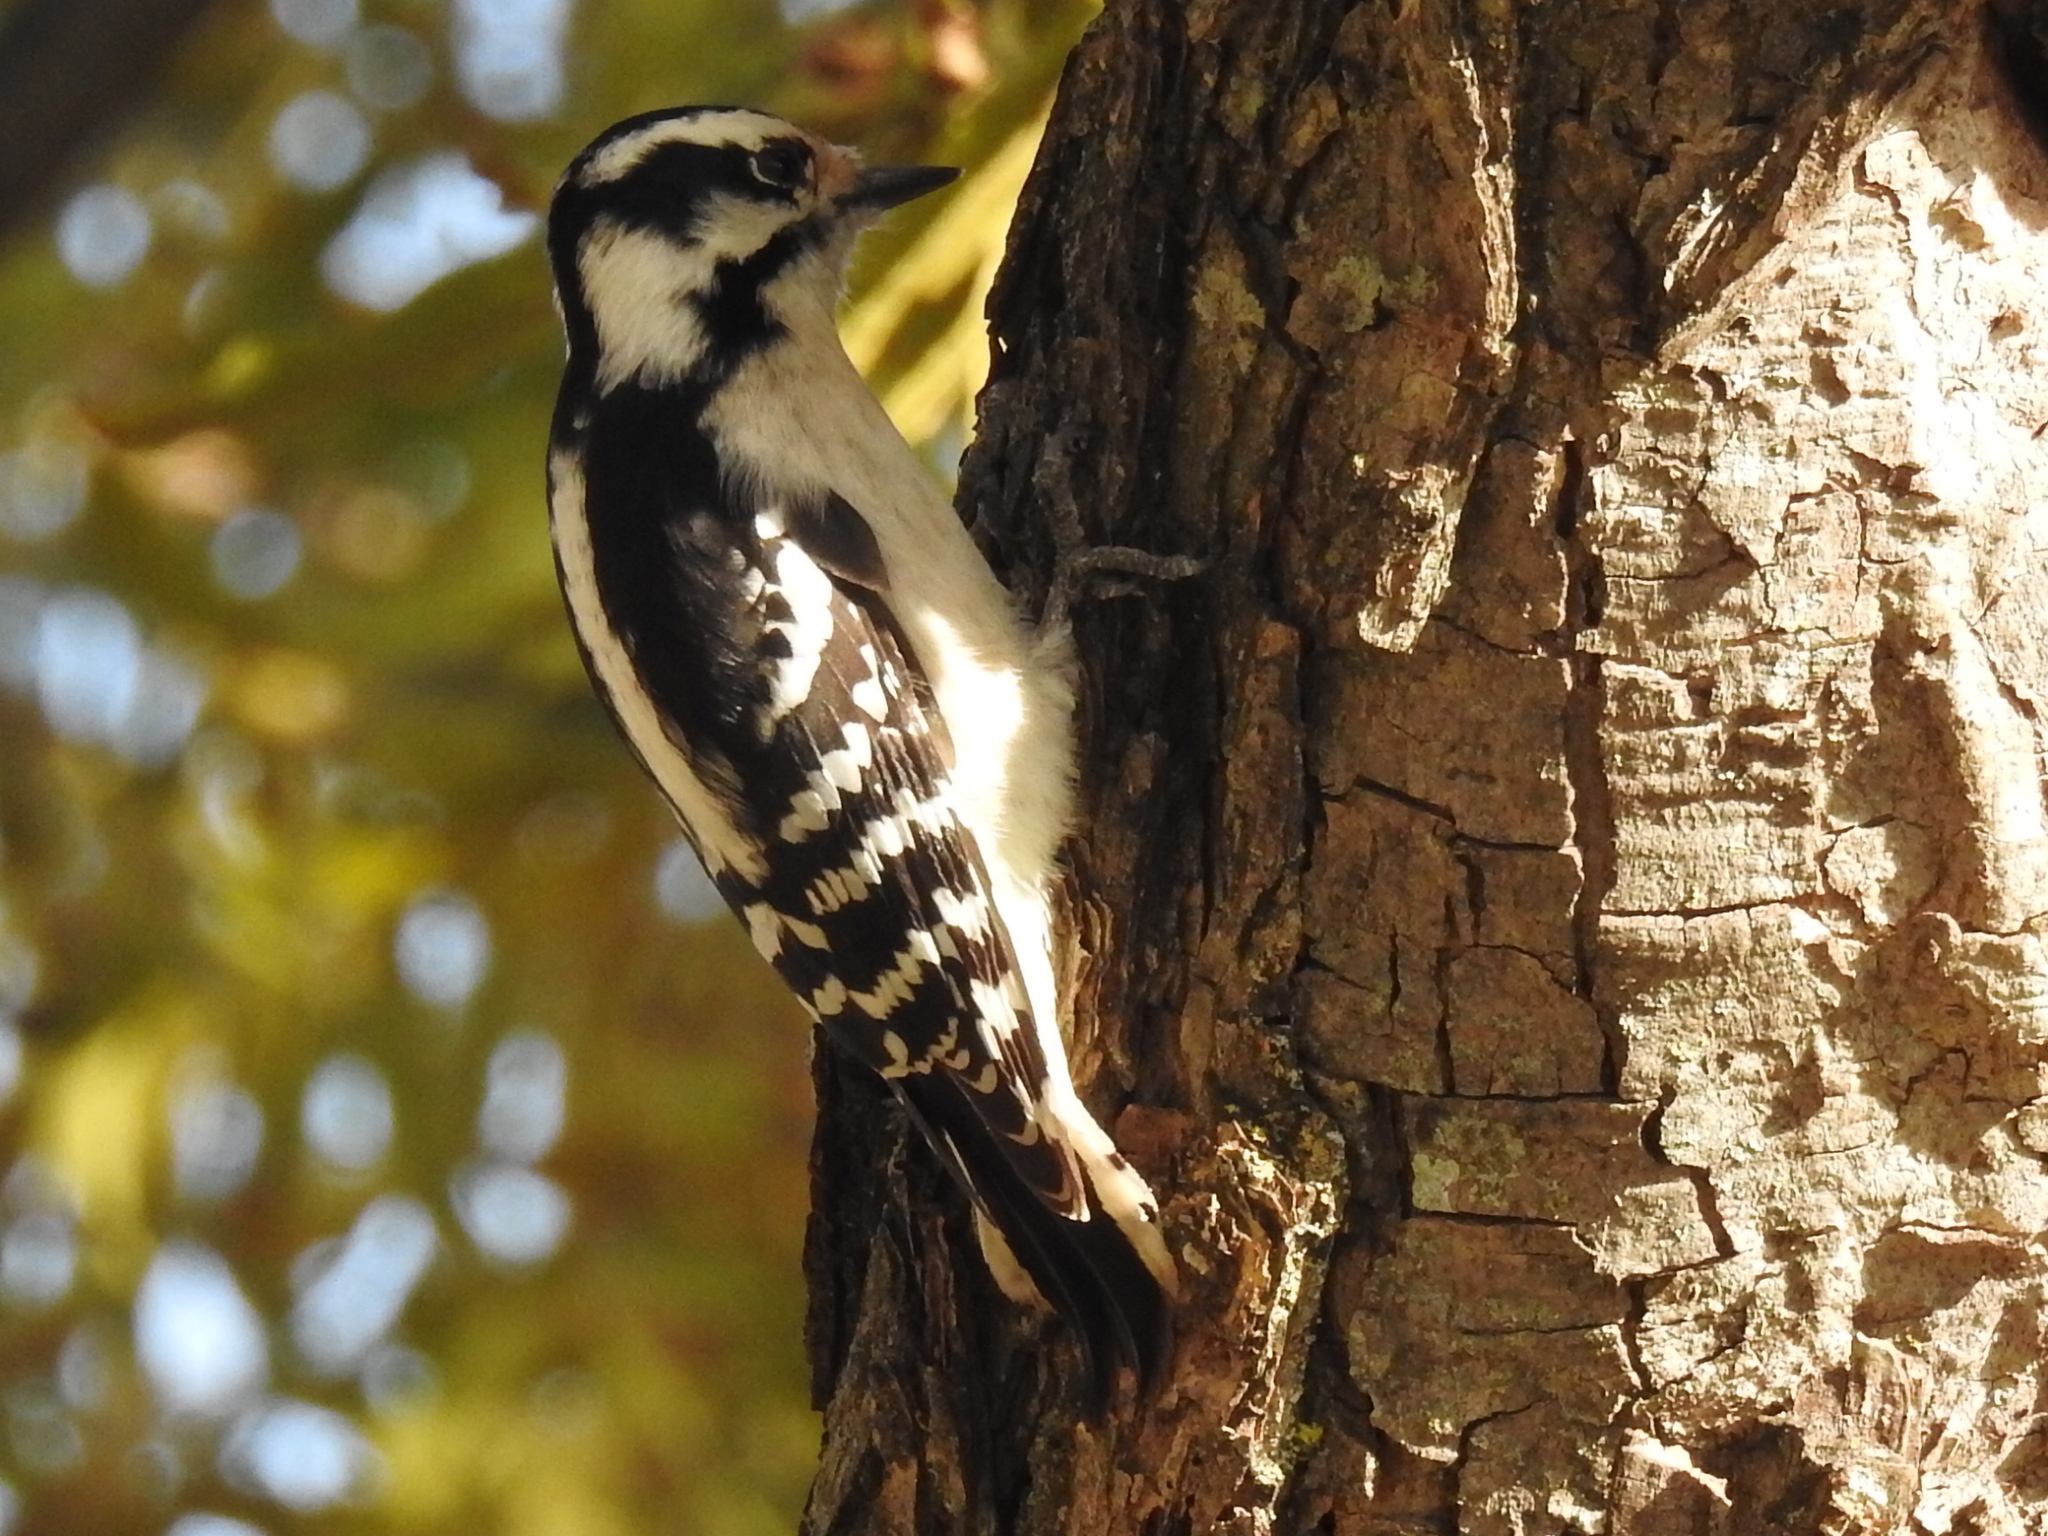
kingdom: Animalia
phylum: Chordata
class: Aves
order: Piciformes
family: Picidae
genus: Dryobates
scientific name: Dryobates pubescens
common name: Downy woodpecker
